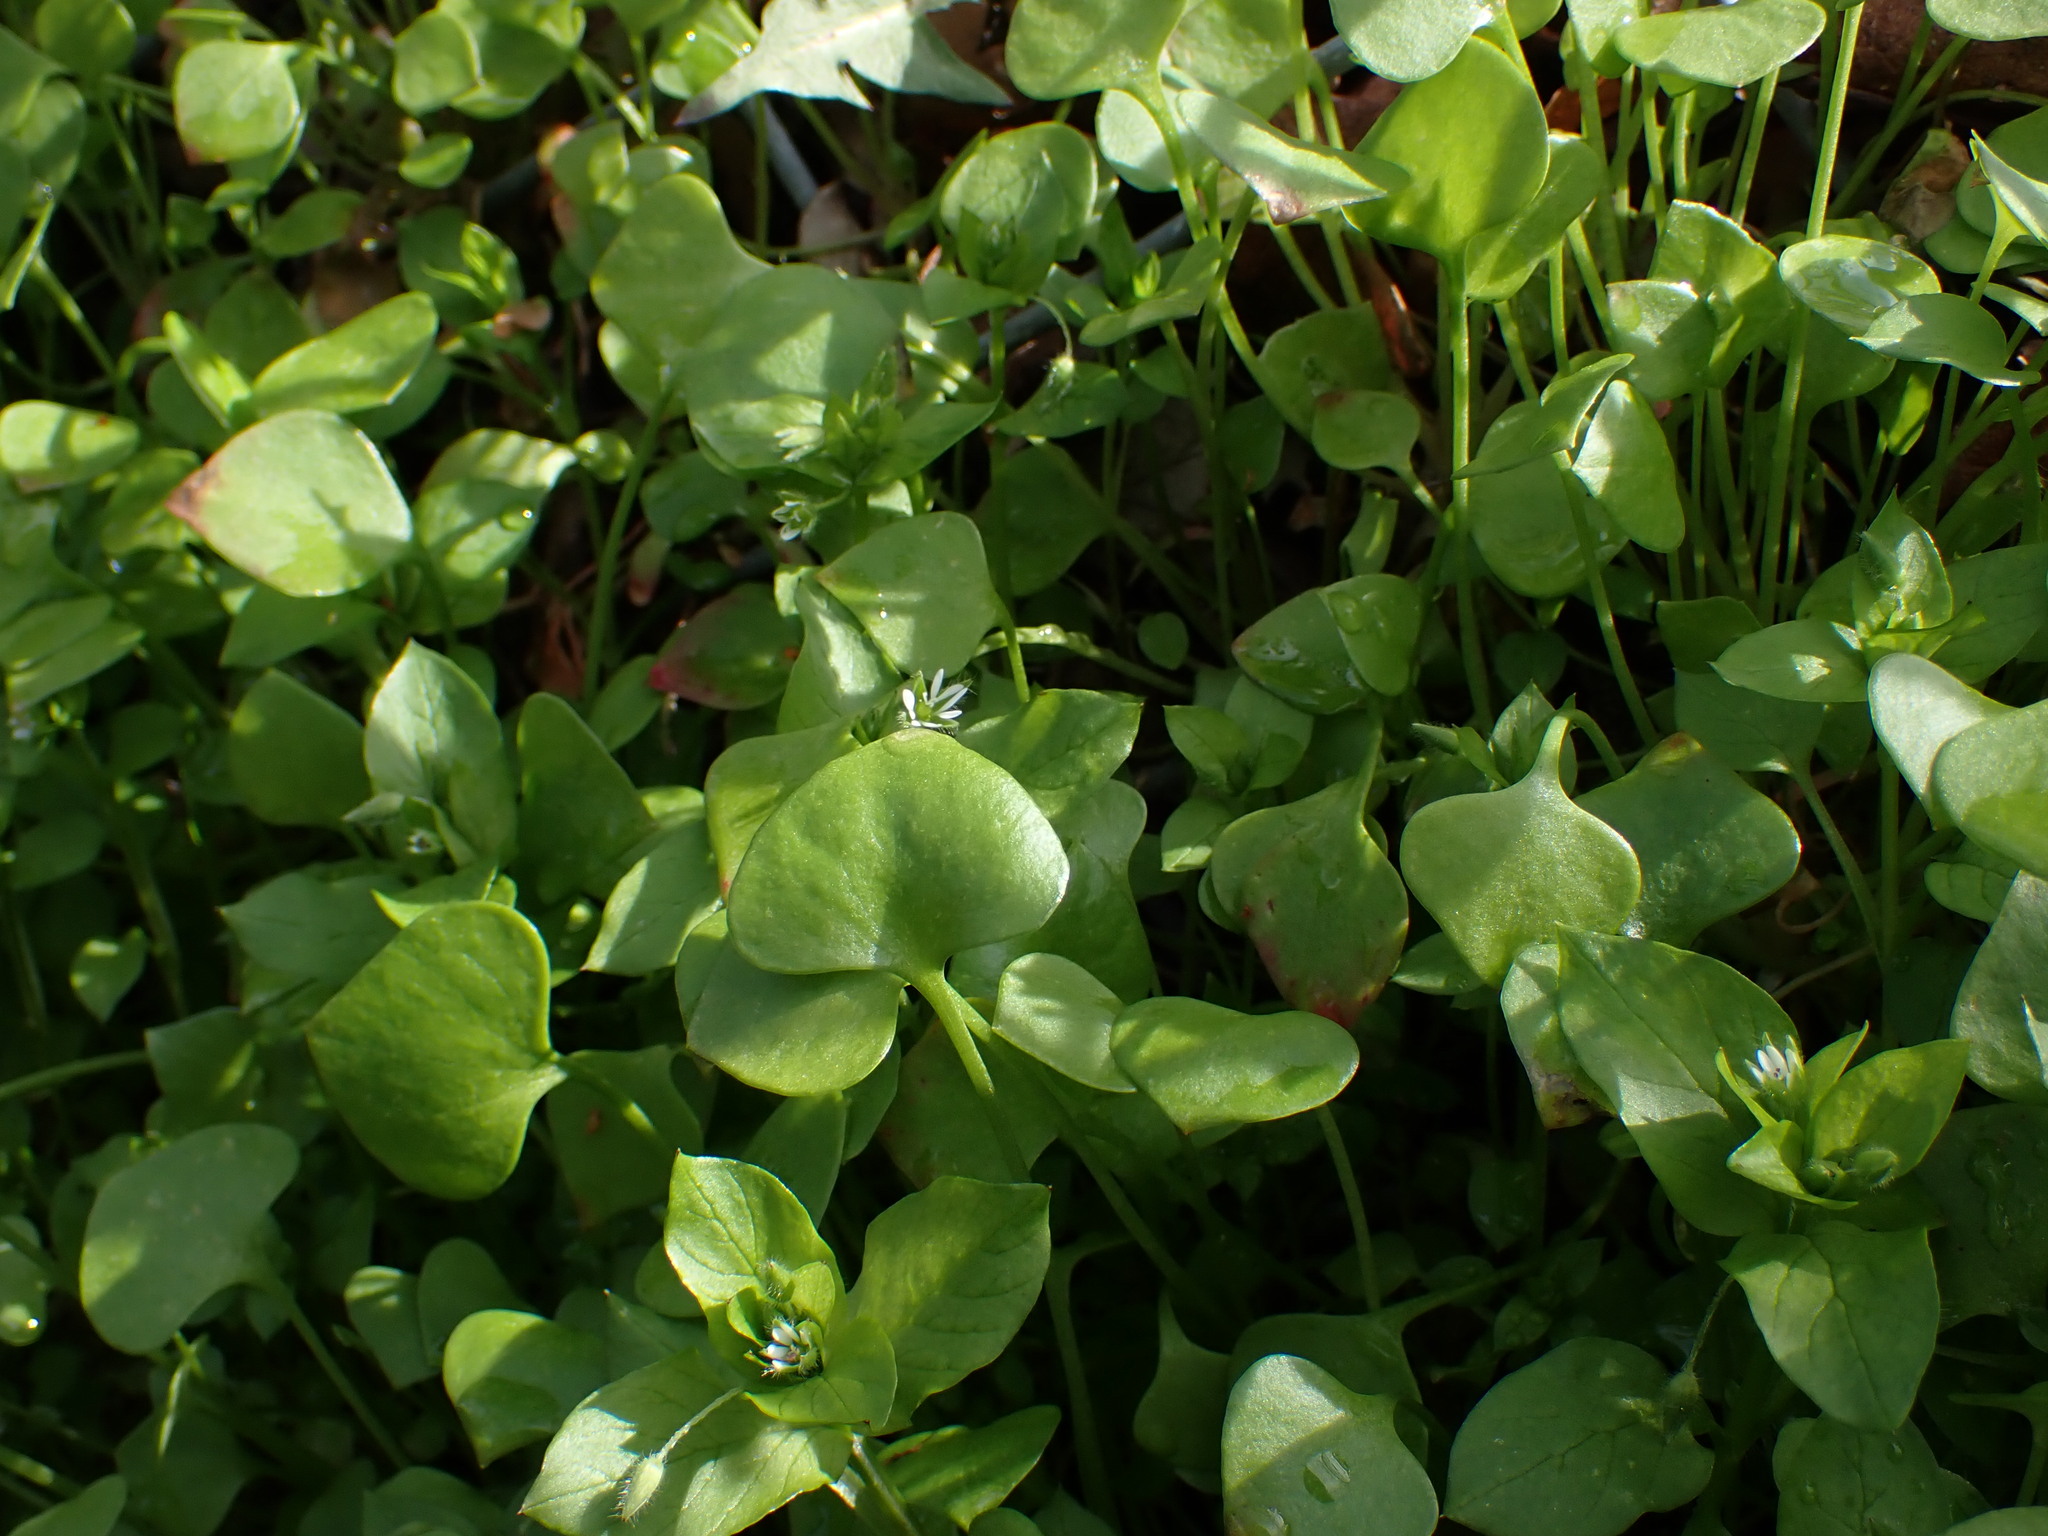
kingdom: Plantae
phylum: Tracheophyta
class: Magnoliopsida
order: Caryophyllales
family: Montiaceae
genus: Claytonia
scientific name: Claytonia perfoliata
